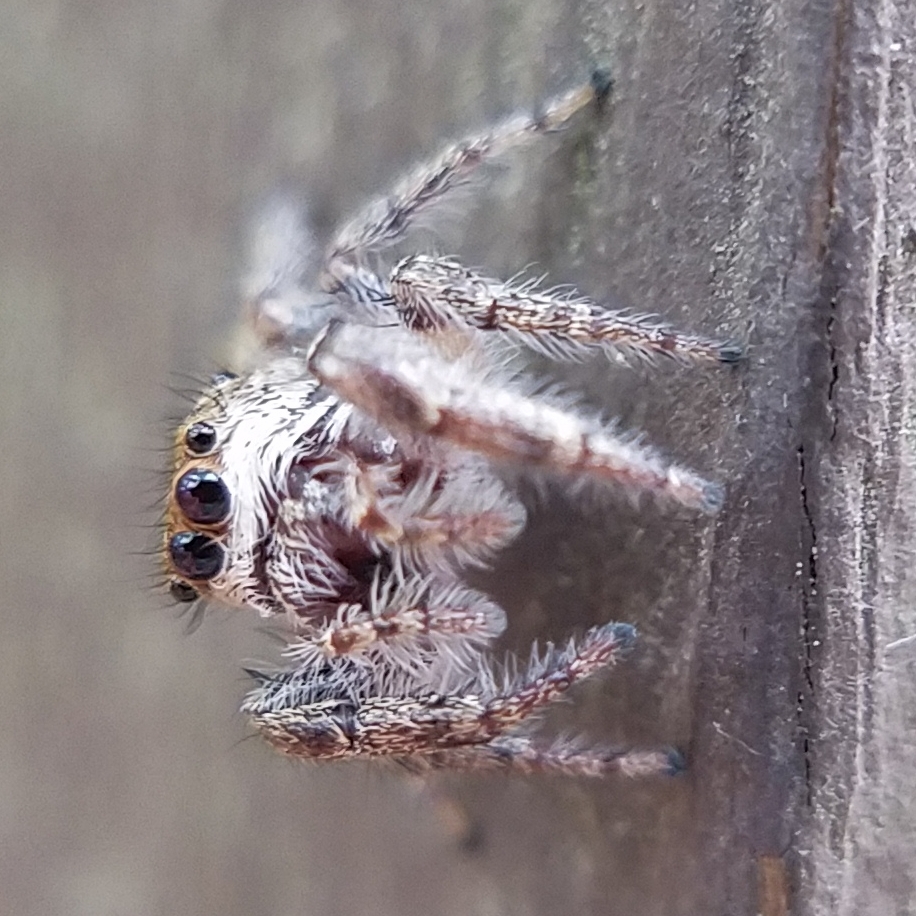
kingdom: Animalia
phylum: Arthropoda
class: Arachnida
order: Araneae
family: Salticidae
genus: Eris
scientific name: Eris militaris
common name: Bronze jumper
